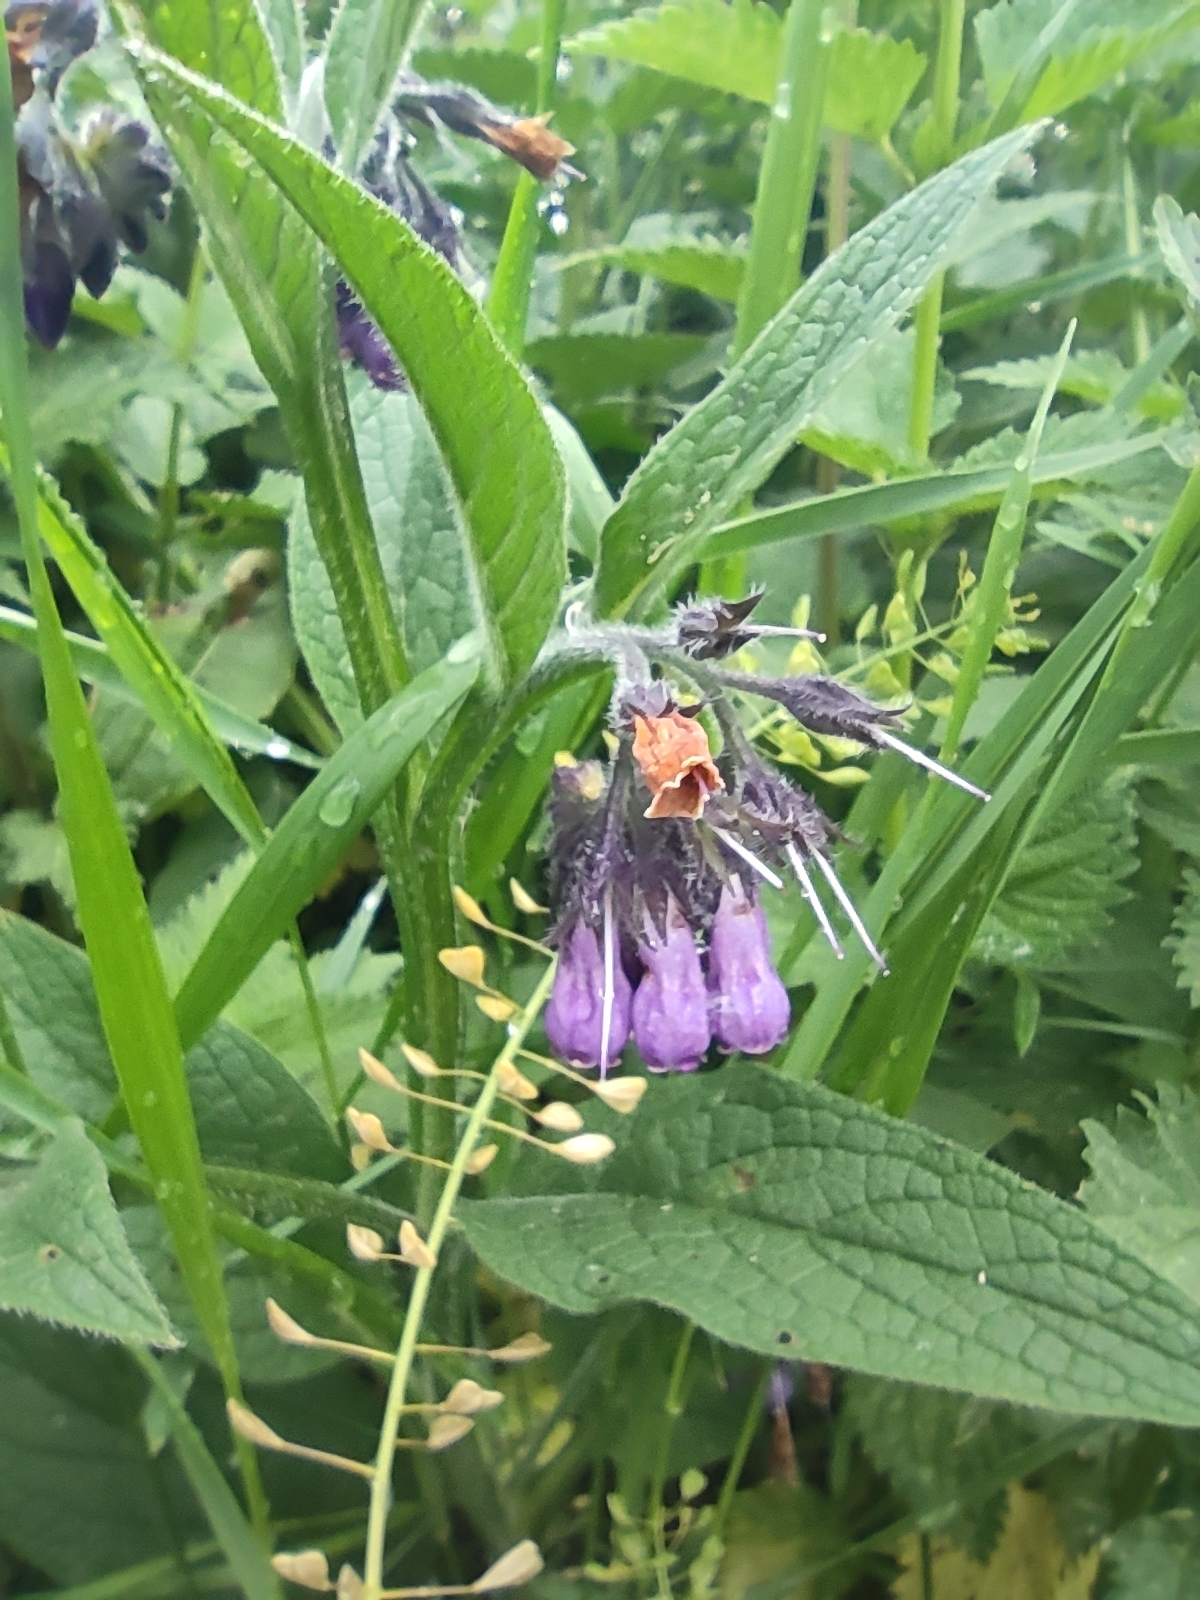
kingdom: Plantae
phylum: Tracheophyta
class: Magnoliopsida
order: Boraginales
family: Boraginaceae
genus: Symphytum
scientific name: Symphytum officinale
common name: Common comfrey
